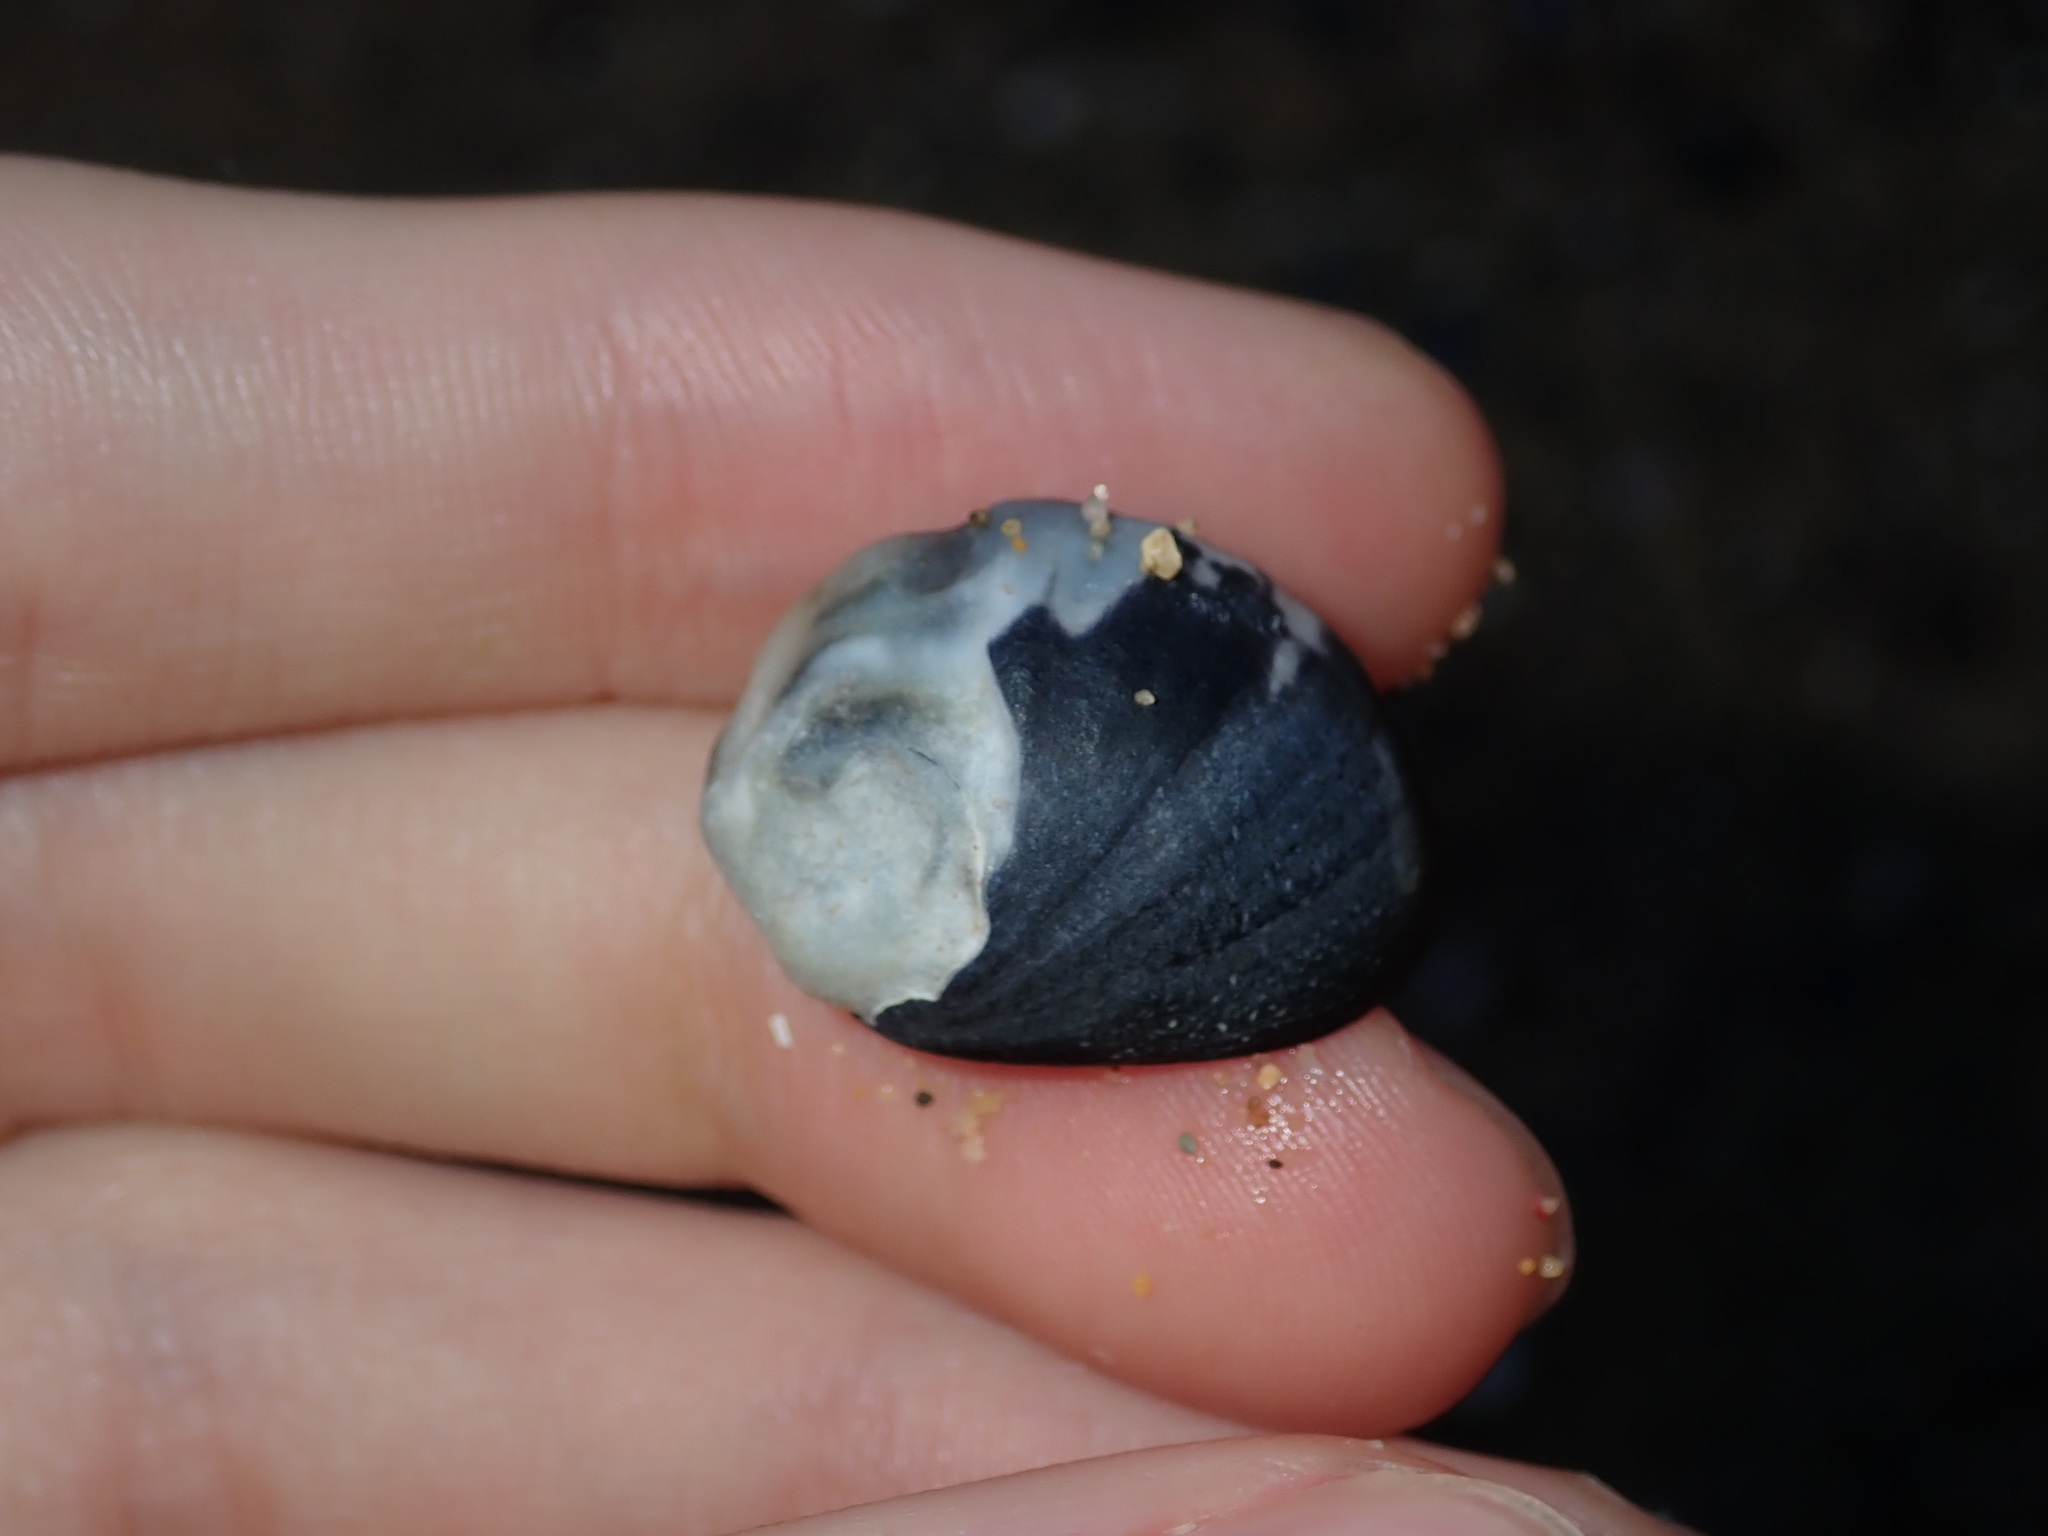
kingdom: Animalia
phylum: Mollusca
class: Gastropoda
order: Cycloneritida
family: Neritidae
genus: Nerita
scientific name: Nerita melanotragus
